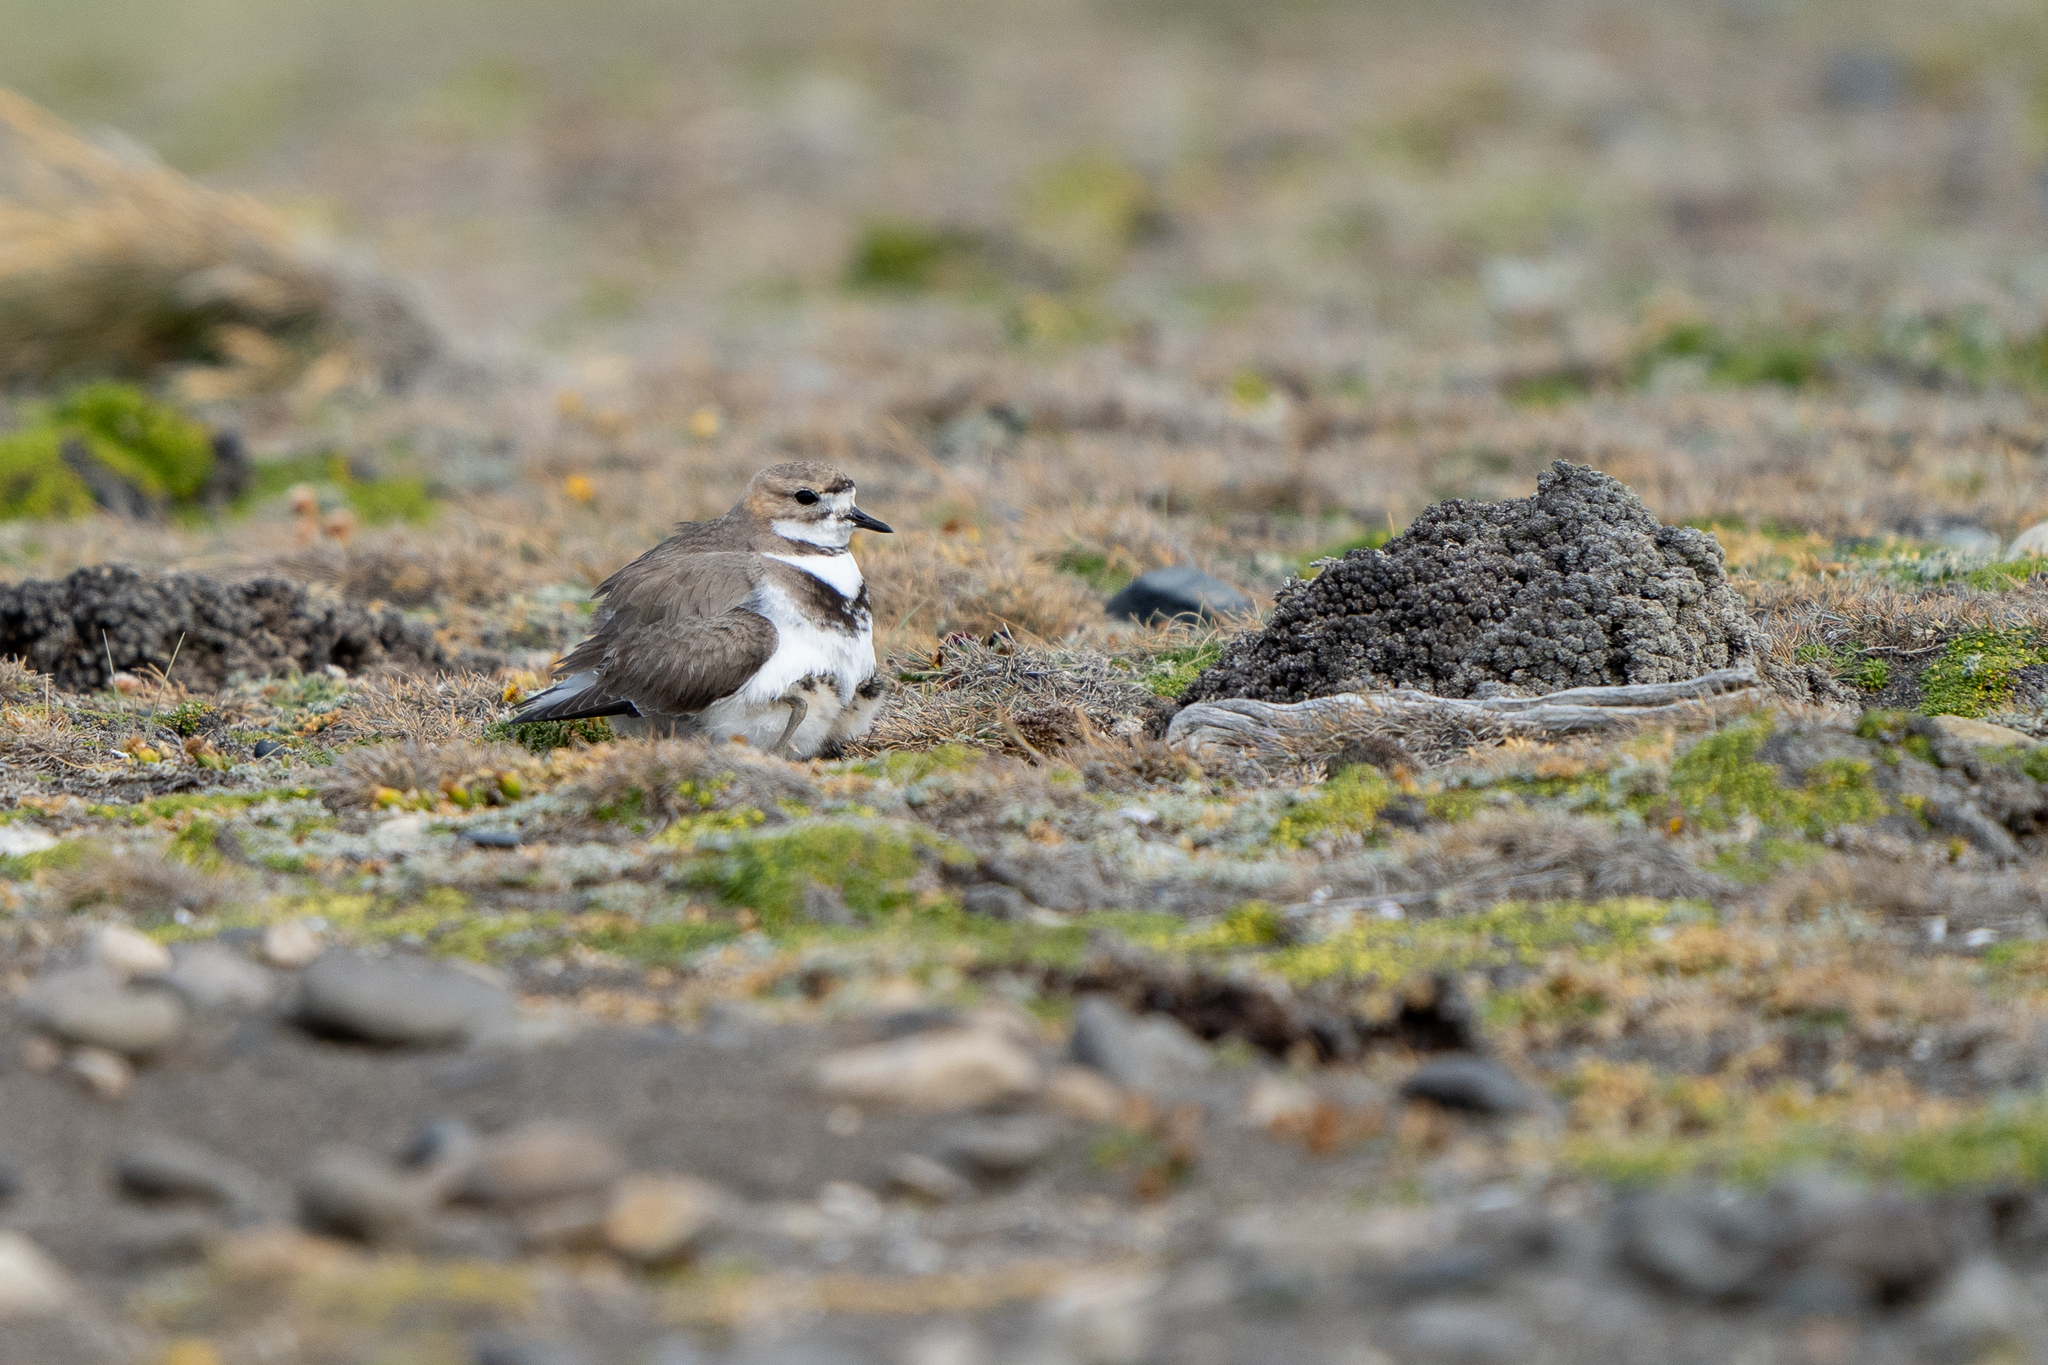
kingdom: Animalia
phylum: Chordata
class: Aves
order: Charadriiformes
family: Charadriidae
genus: Anarhynchus
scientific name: Anarhynchus
